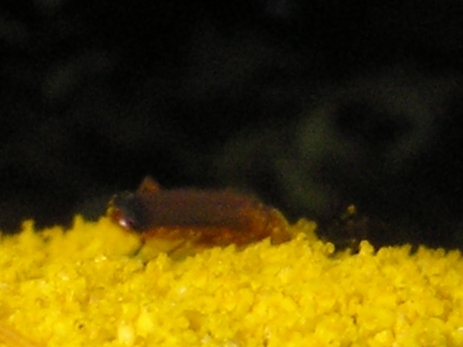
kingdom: Animalia
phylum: Arthropoda
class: Insecta
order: Coleoptera
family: Cantharidae
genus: Rhagonycha
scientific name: Rhagonycha fulva
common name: Common red soldier beetle
